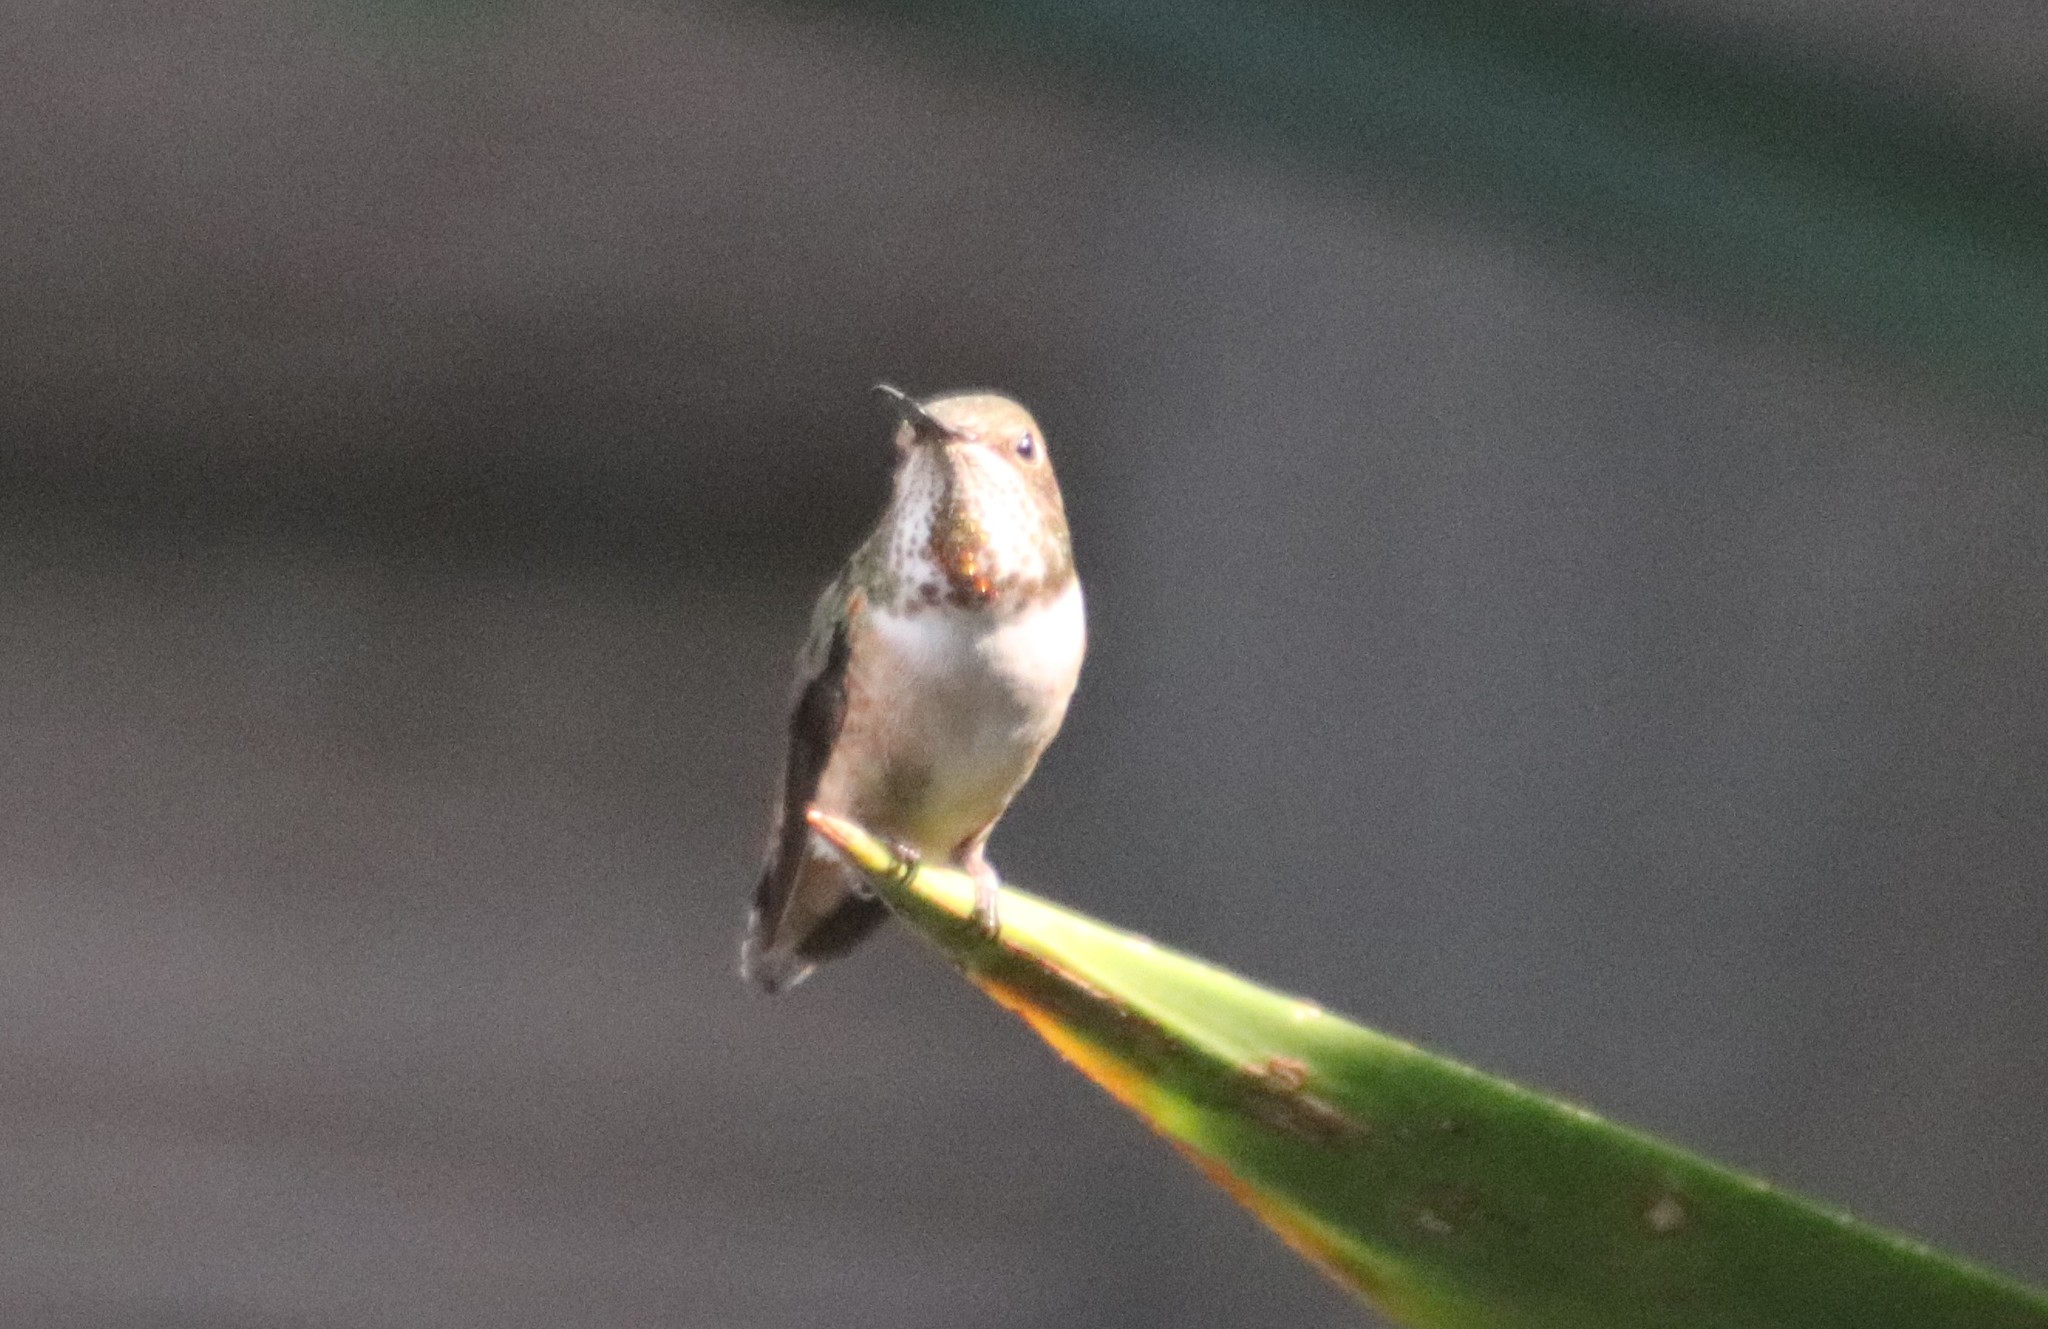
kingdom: Animalia
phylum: Chordata
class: Aves
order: Apodiformes
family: Trochilidae
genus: Selasphorus
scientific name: Selasphorus
